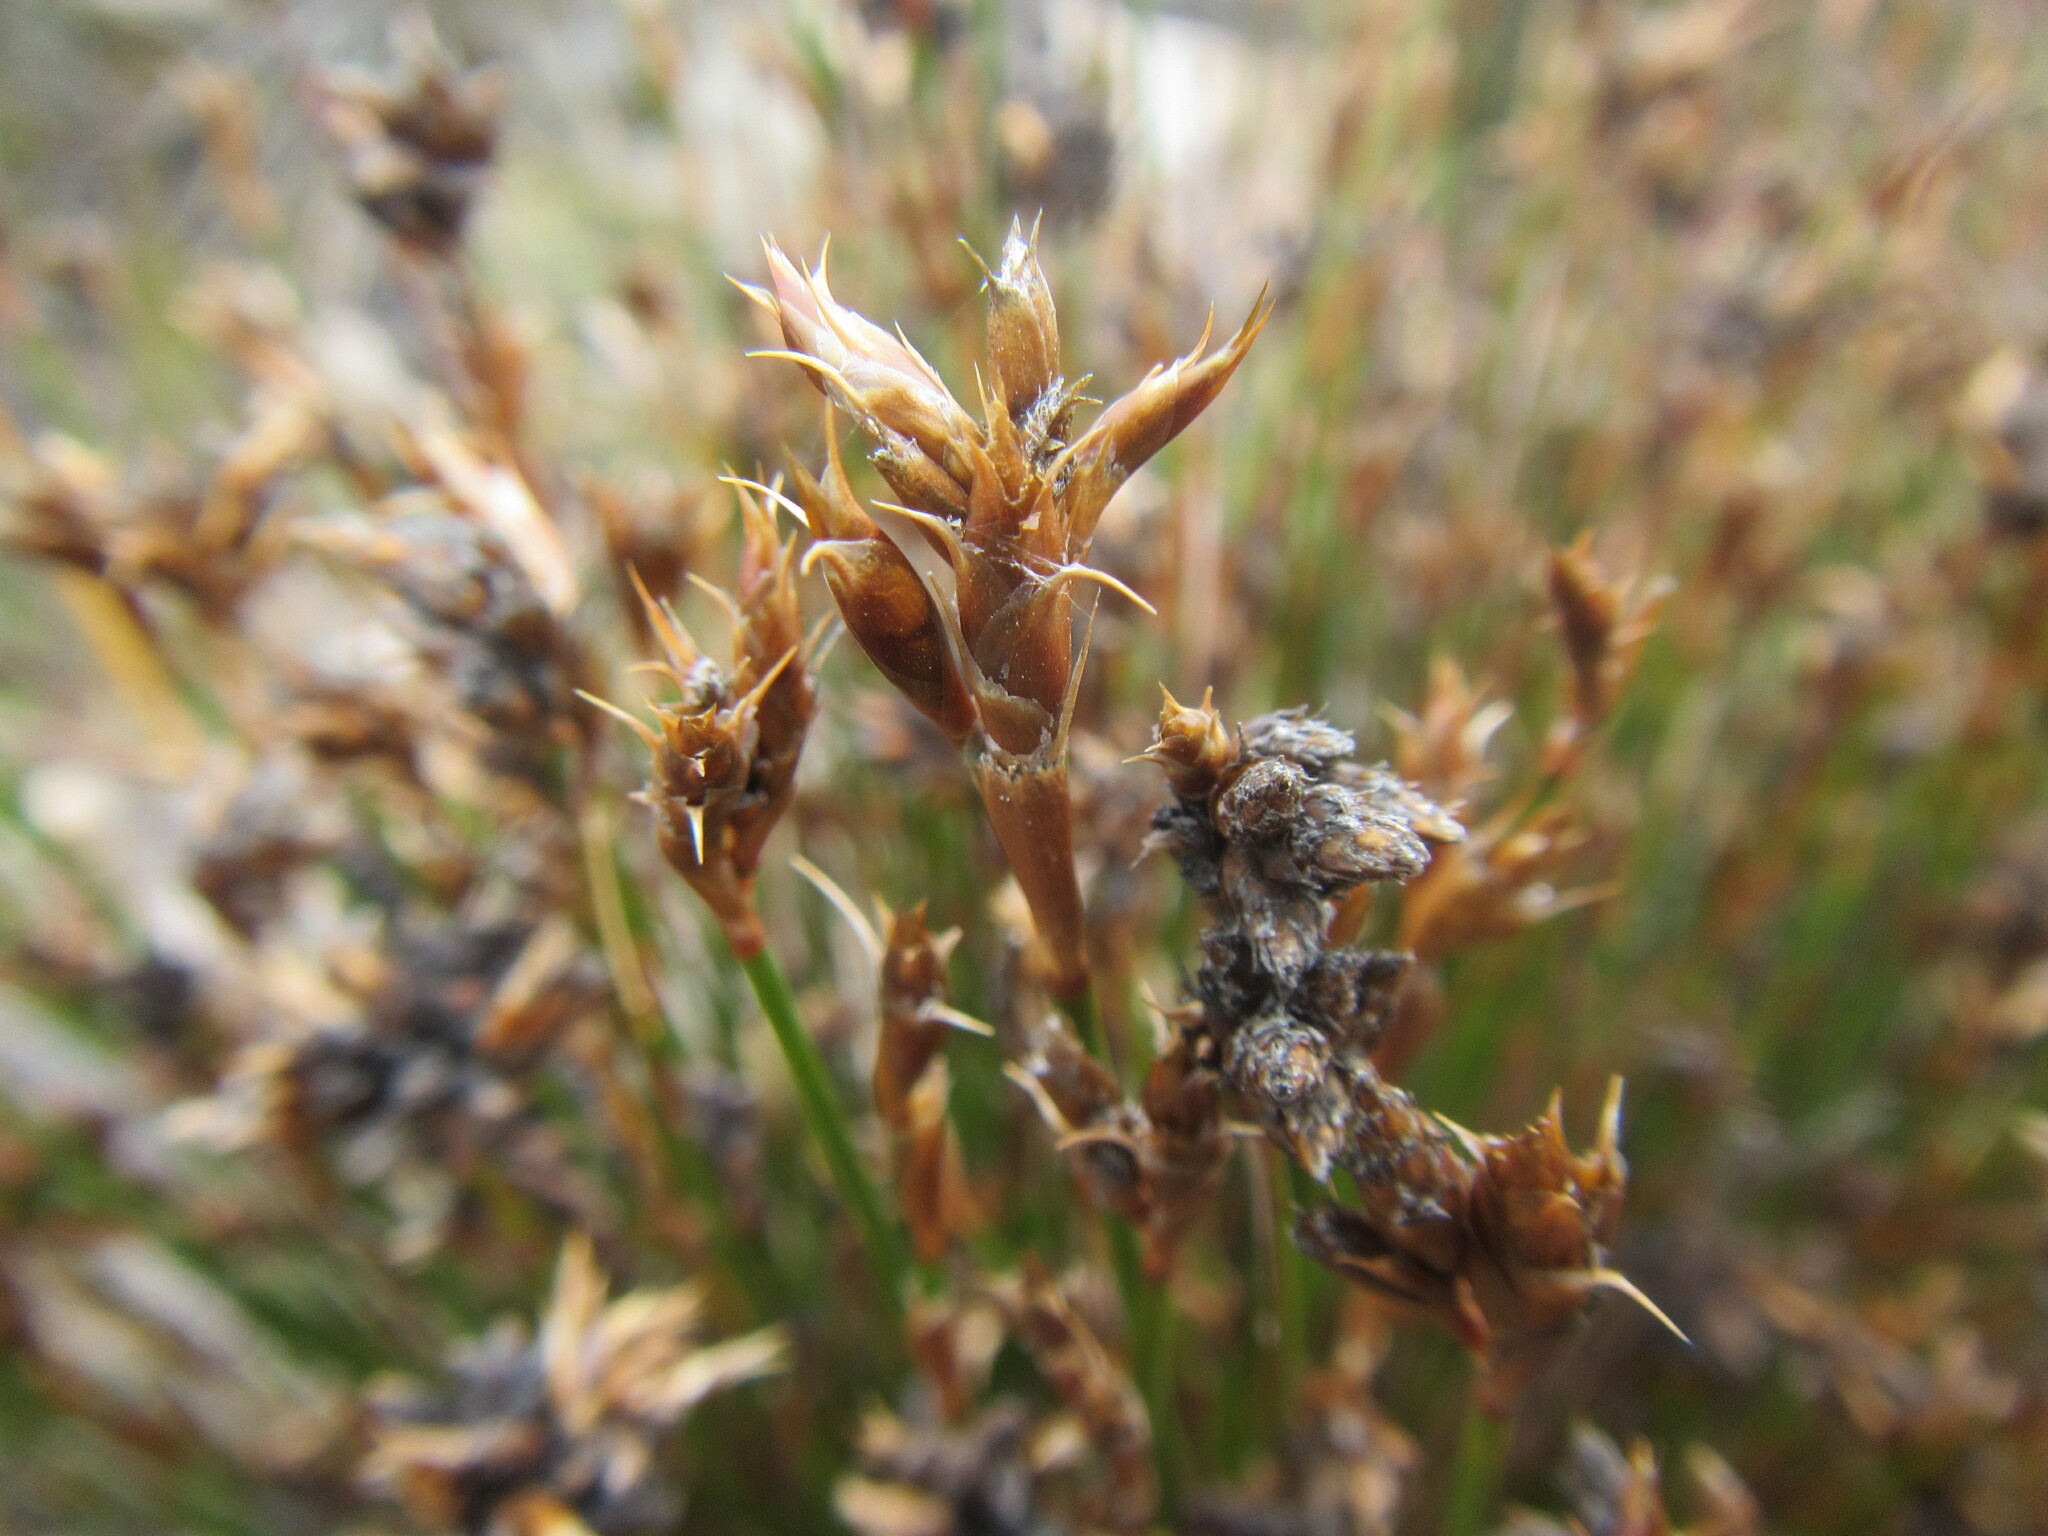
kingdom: Plantae
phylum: Tracheophyta
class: Liliopsida
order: Poales
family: Restionaceae
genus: Restio
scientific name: Restio virgeus
